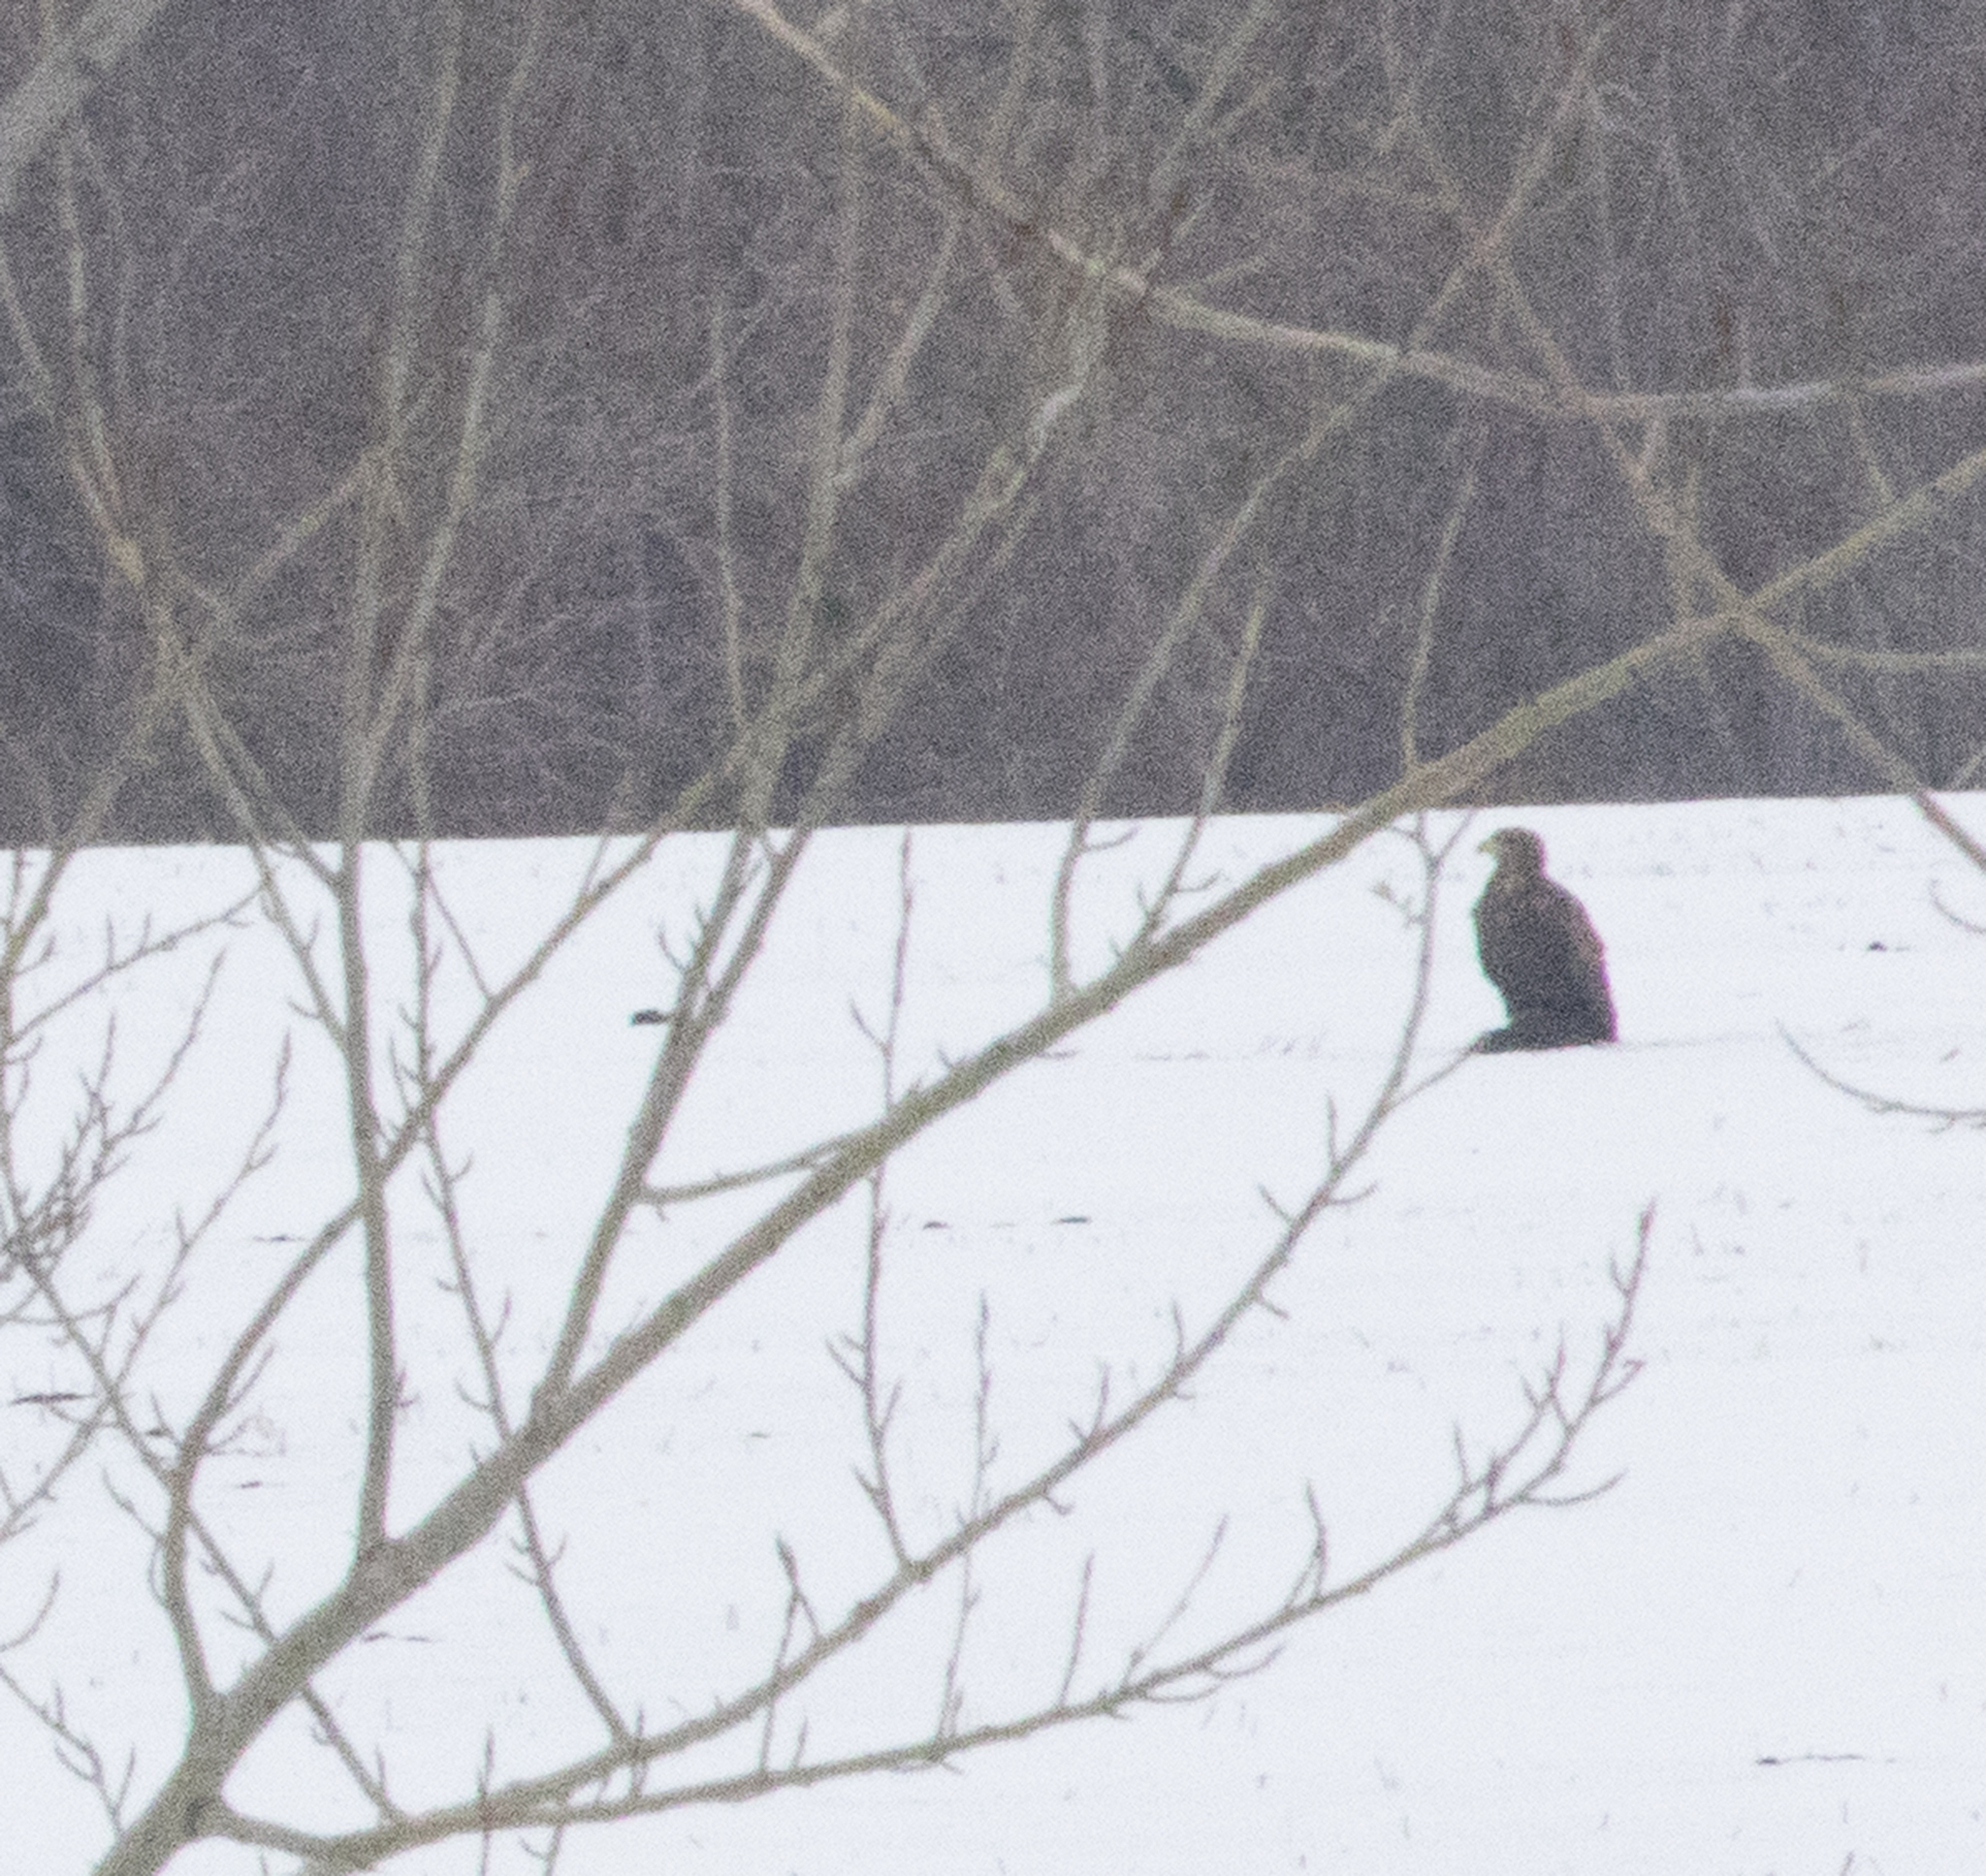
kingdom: Animalia
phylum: Chordata
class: Aves
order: Accipitriformes
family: Accipitridae
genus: Haliaeetus
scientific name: Haliaeetus albicilla
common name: White-tailed eagle
